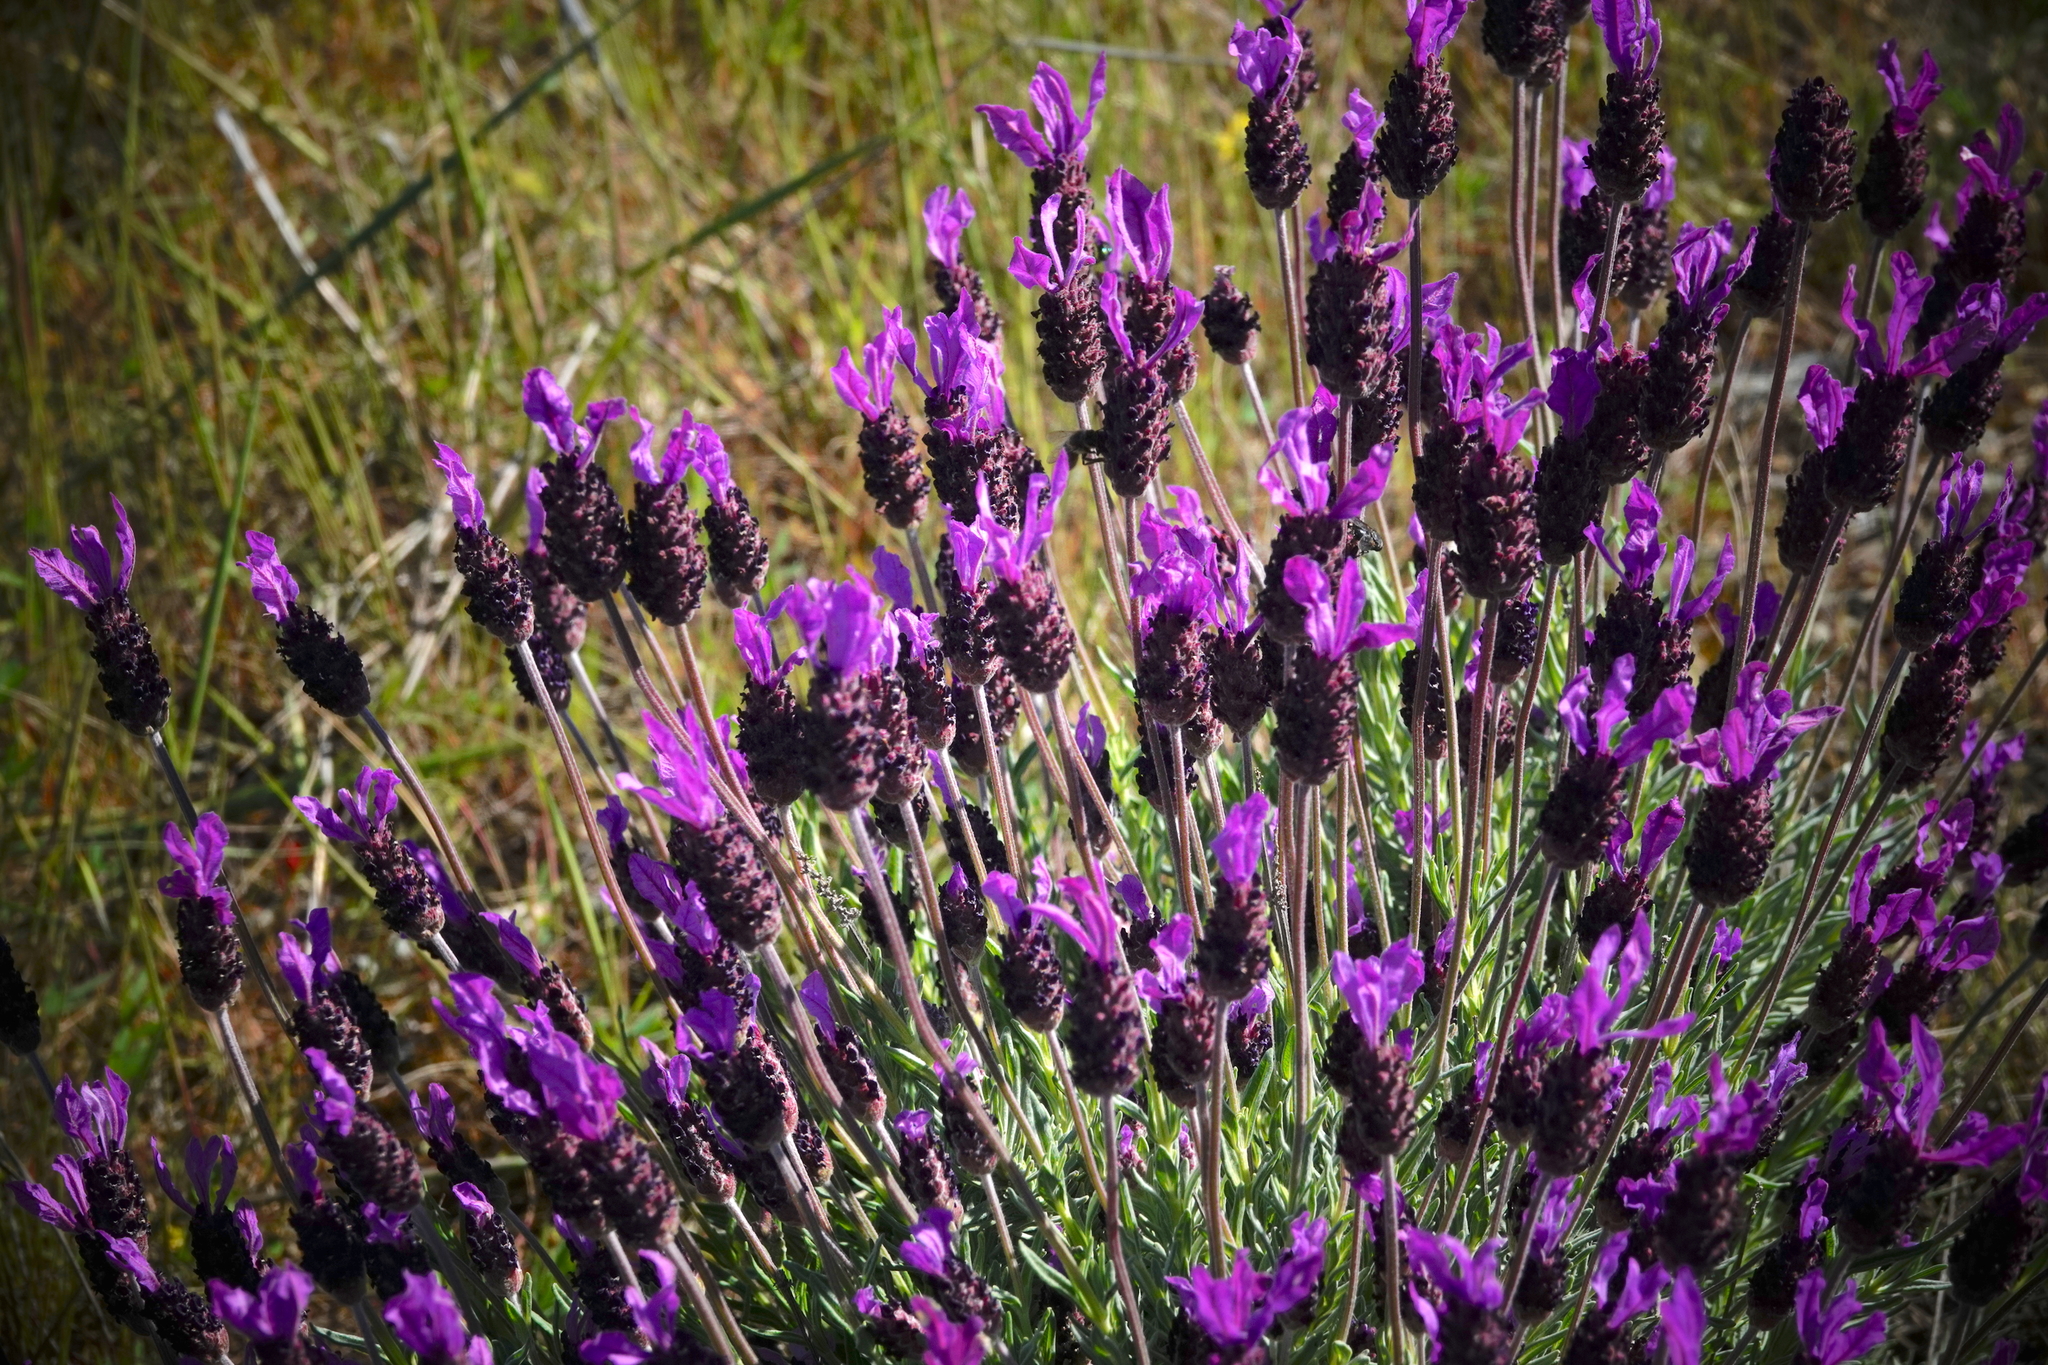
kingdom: Plantae
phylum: Tracheophyta
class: Magnoliopsida
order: Lamiales
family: Lamiaceae
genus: Lavandula
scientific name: Lavandula pedunculata
